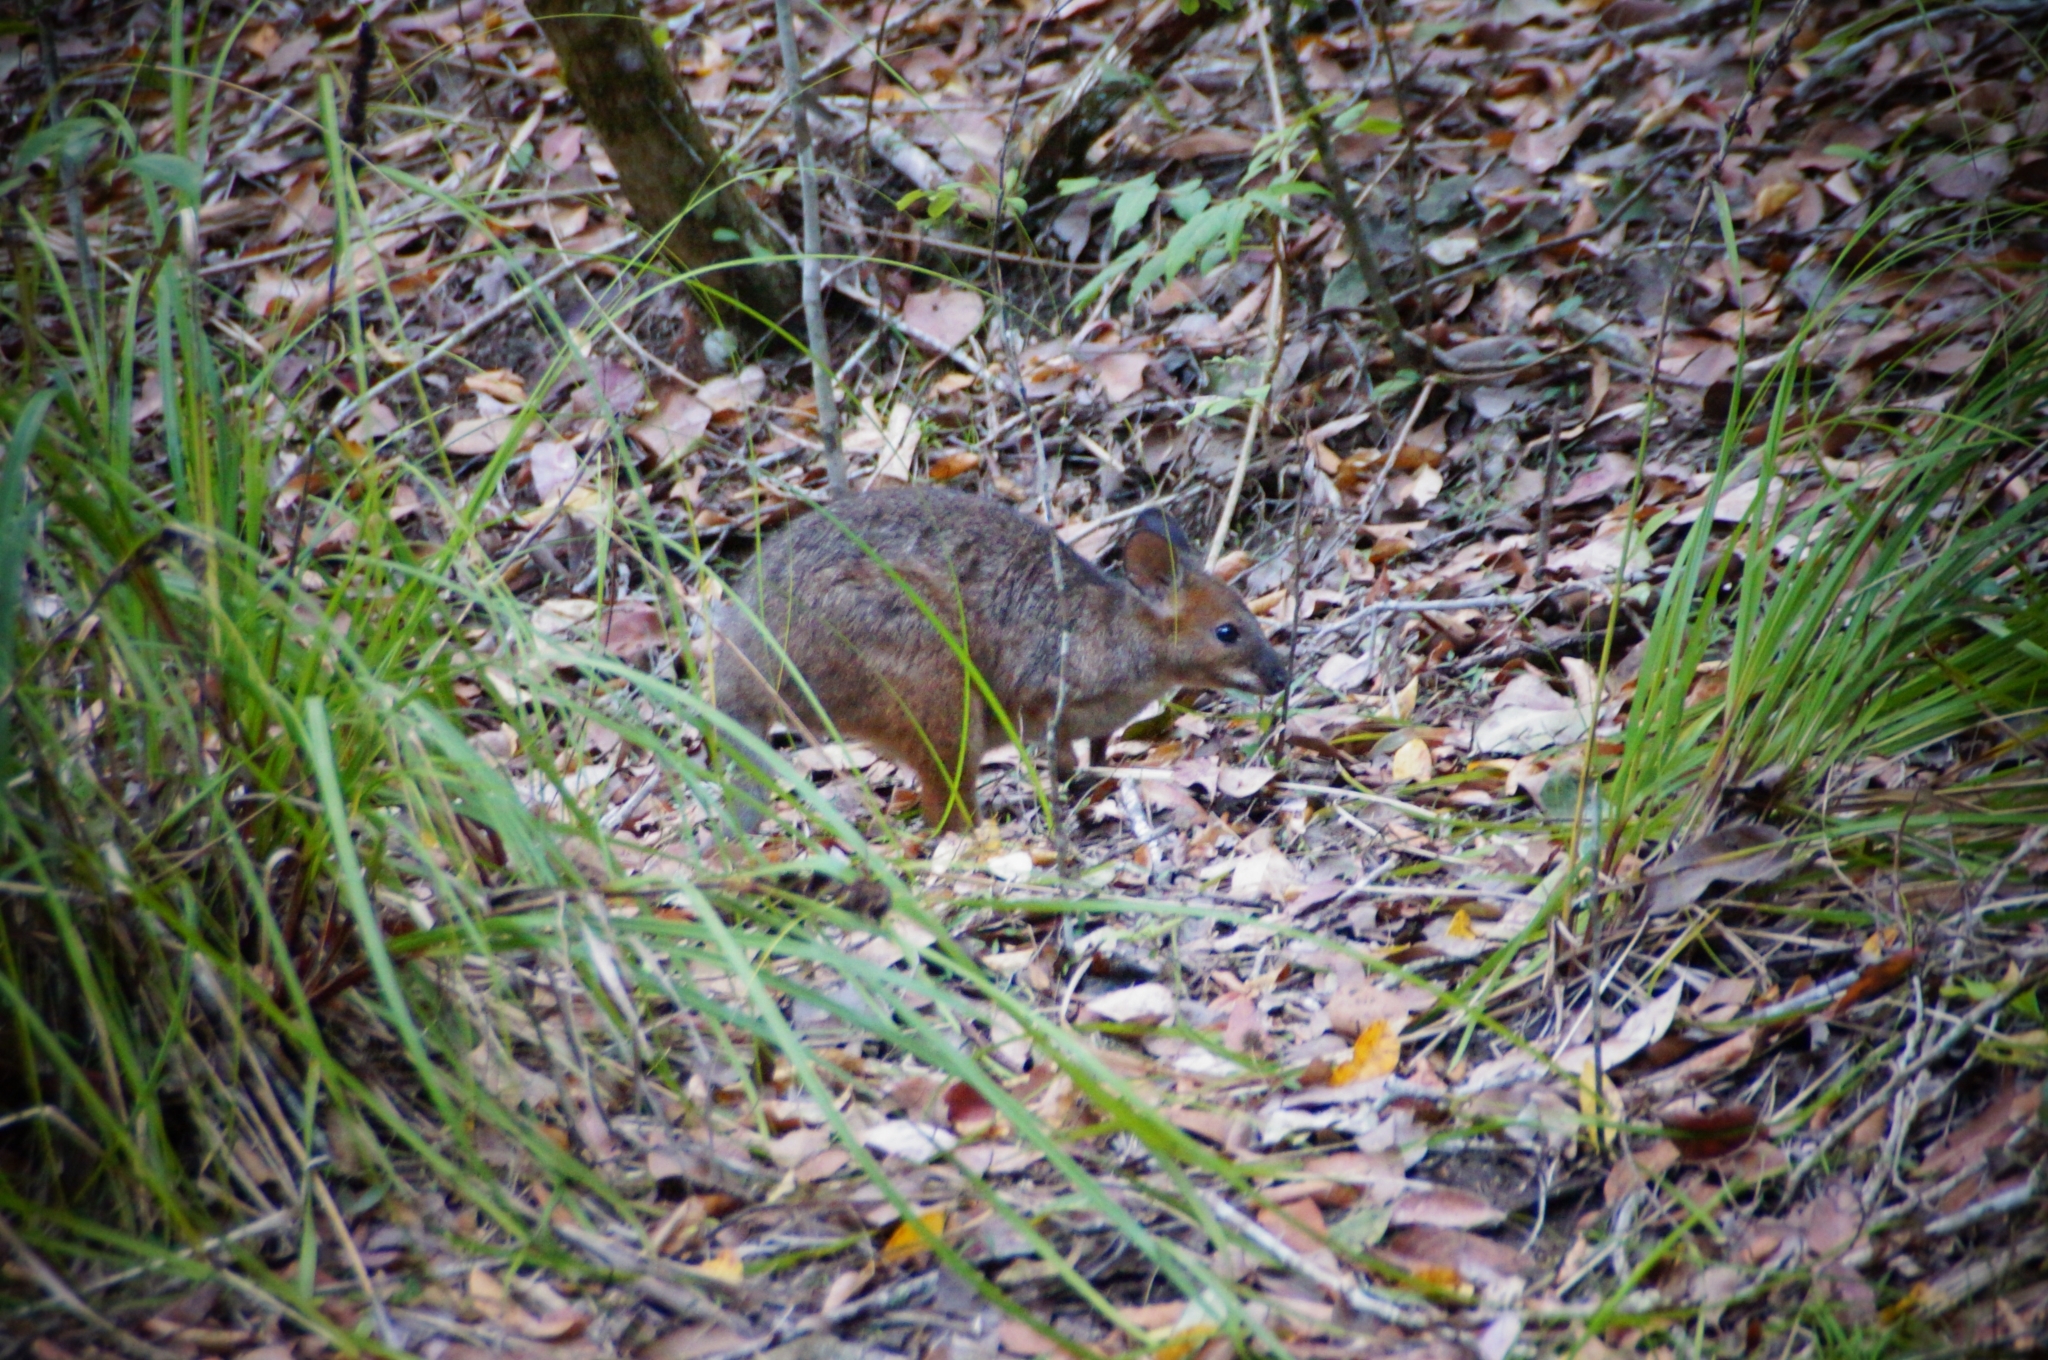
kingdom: Animalia
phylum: Chordata
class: Mammalia
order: Diprotodontia
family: Macropodidae
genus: Thylogale
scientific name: Thylogale stigmatica
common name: Red-legged pademelon
